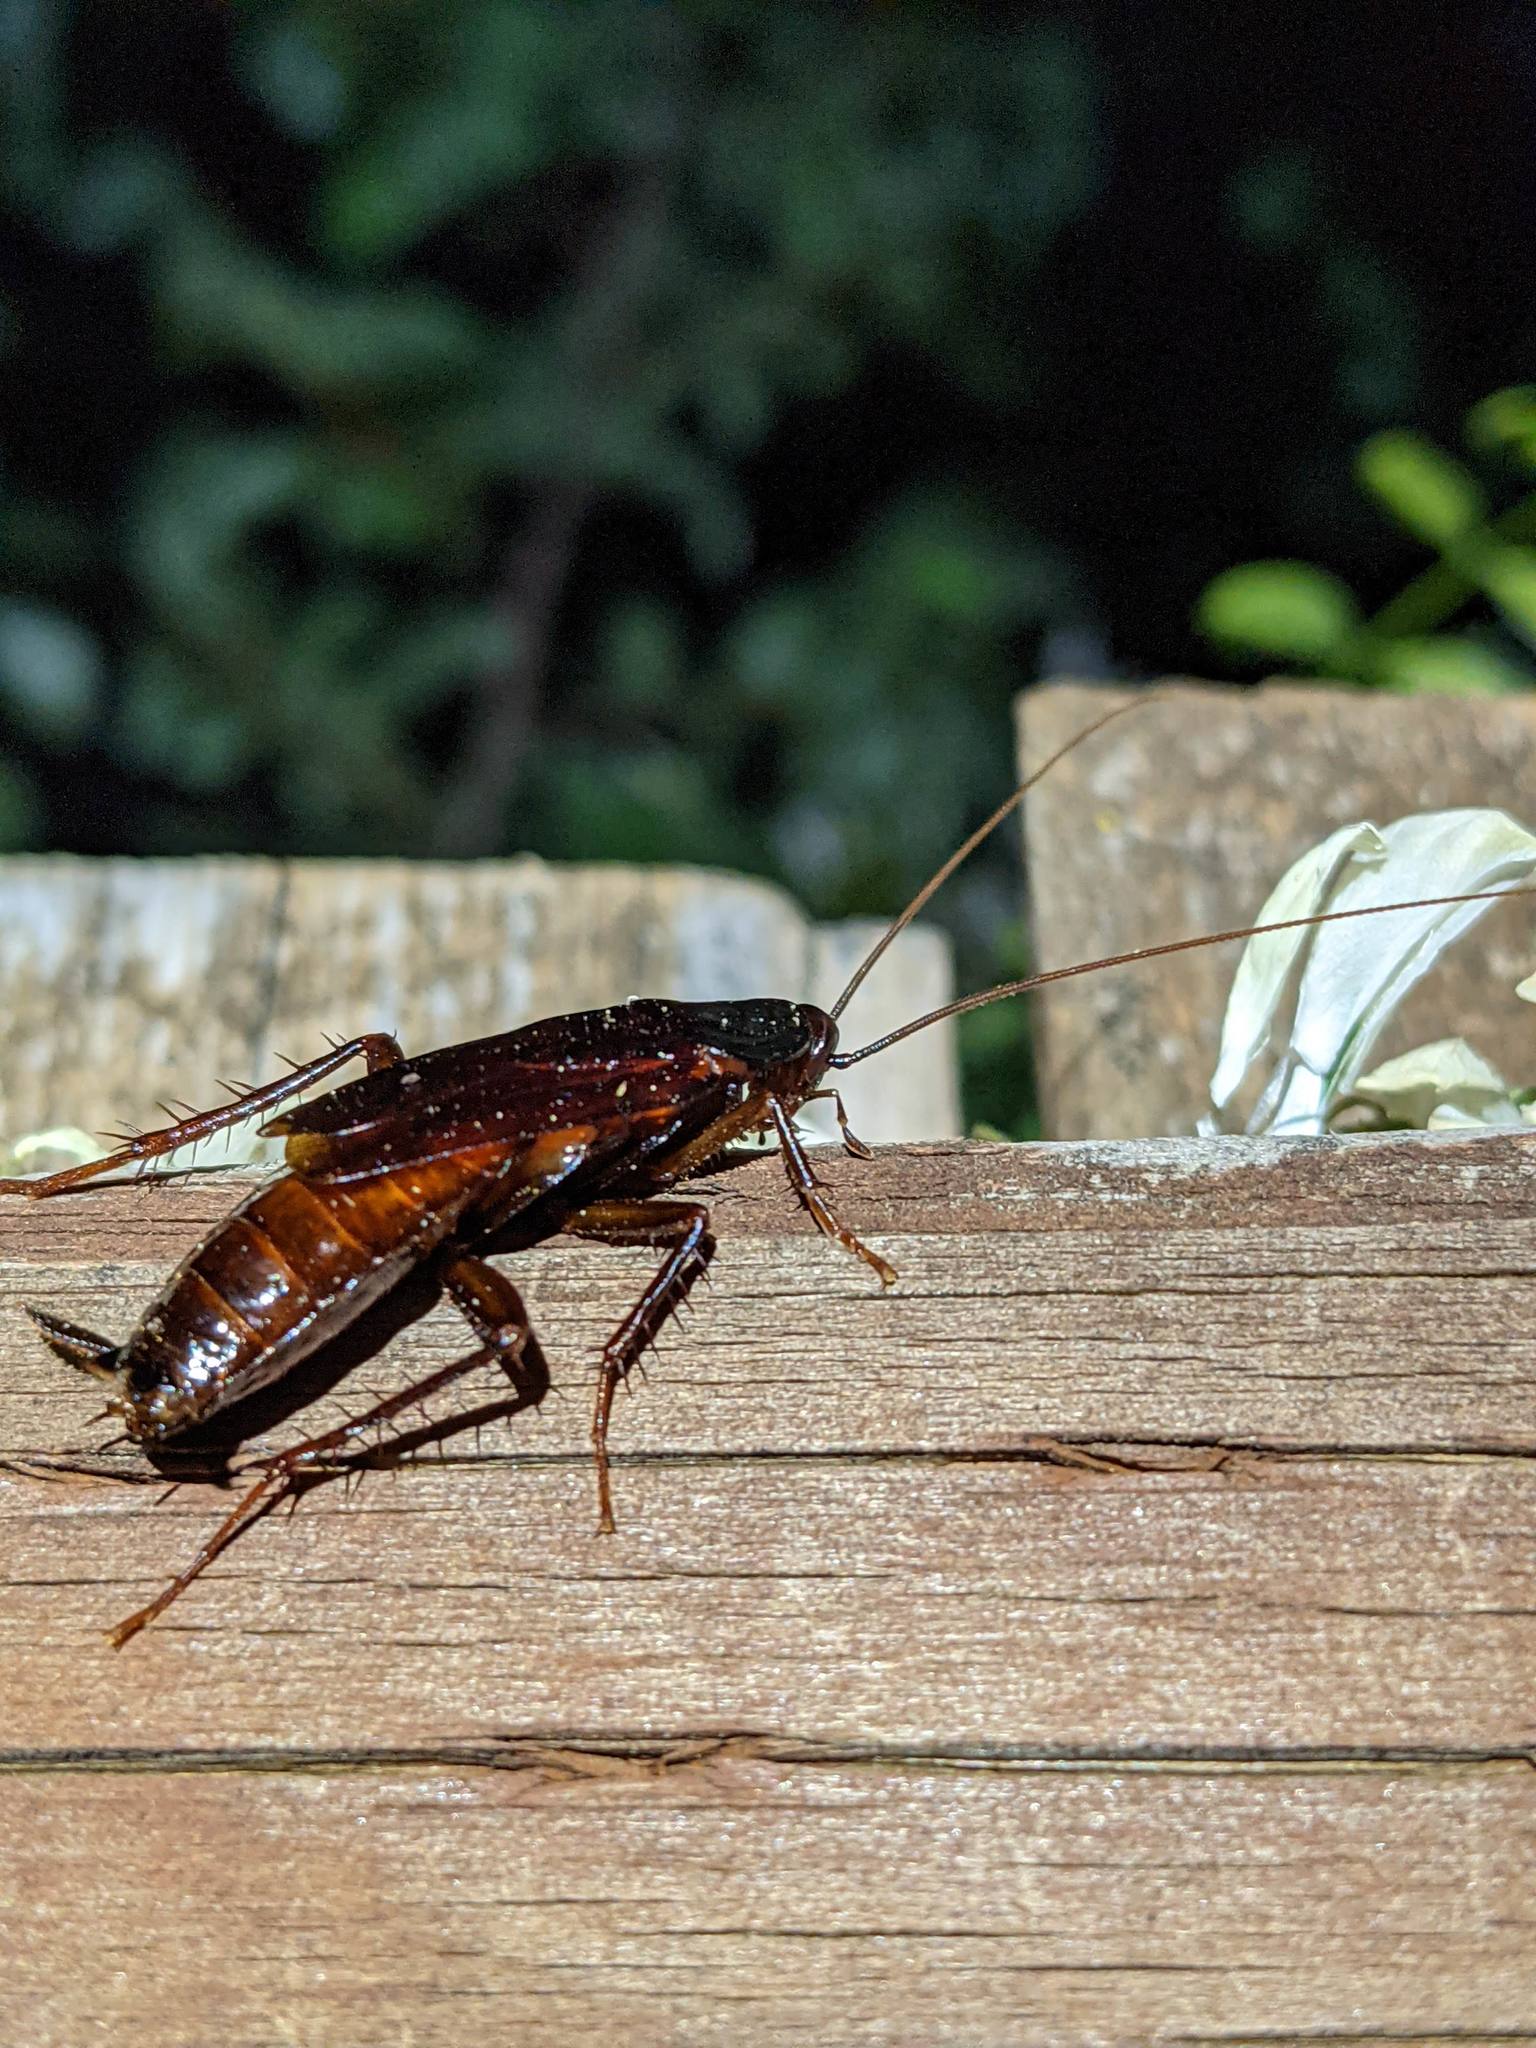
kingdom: Animalia
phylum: Arthropoda
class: Insecta
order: Blattodea
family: Blattidae
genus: Blatta
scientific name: Blatta orientalis
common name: Oriental cockroach
